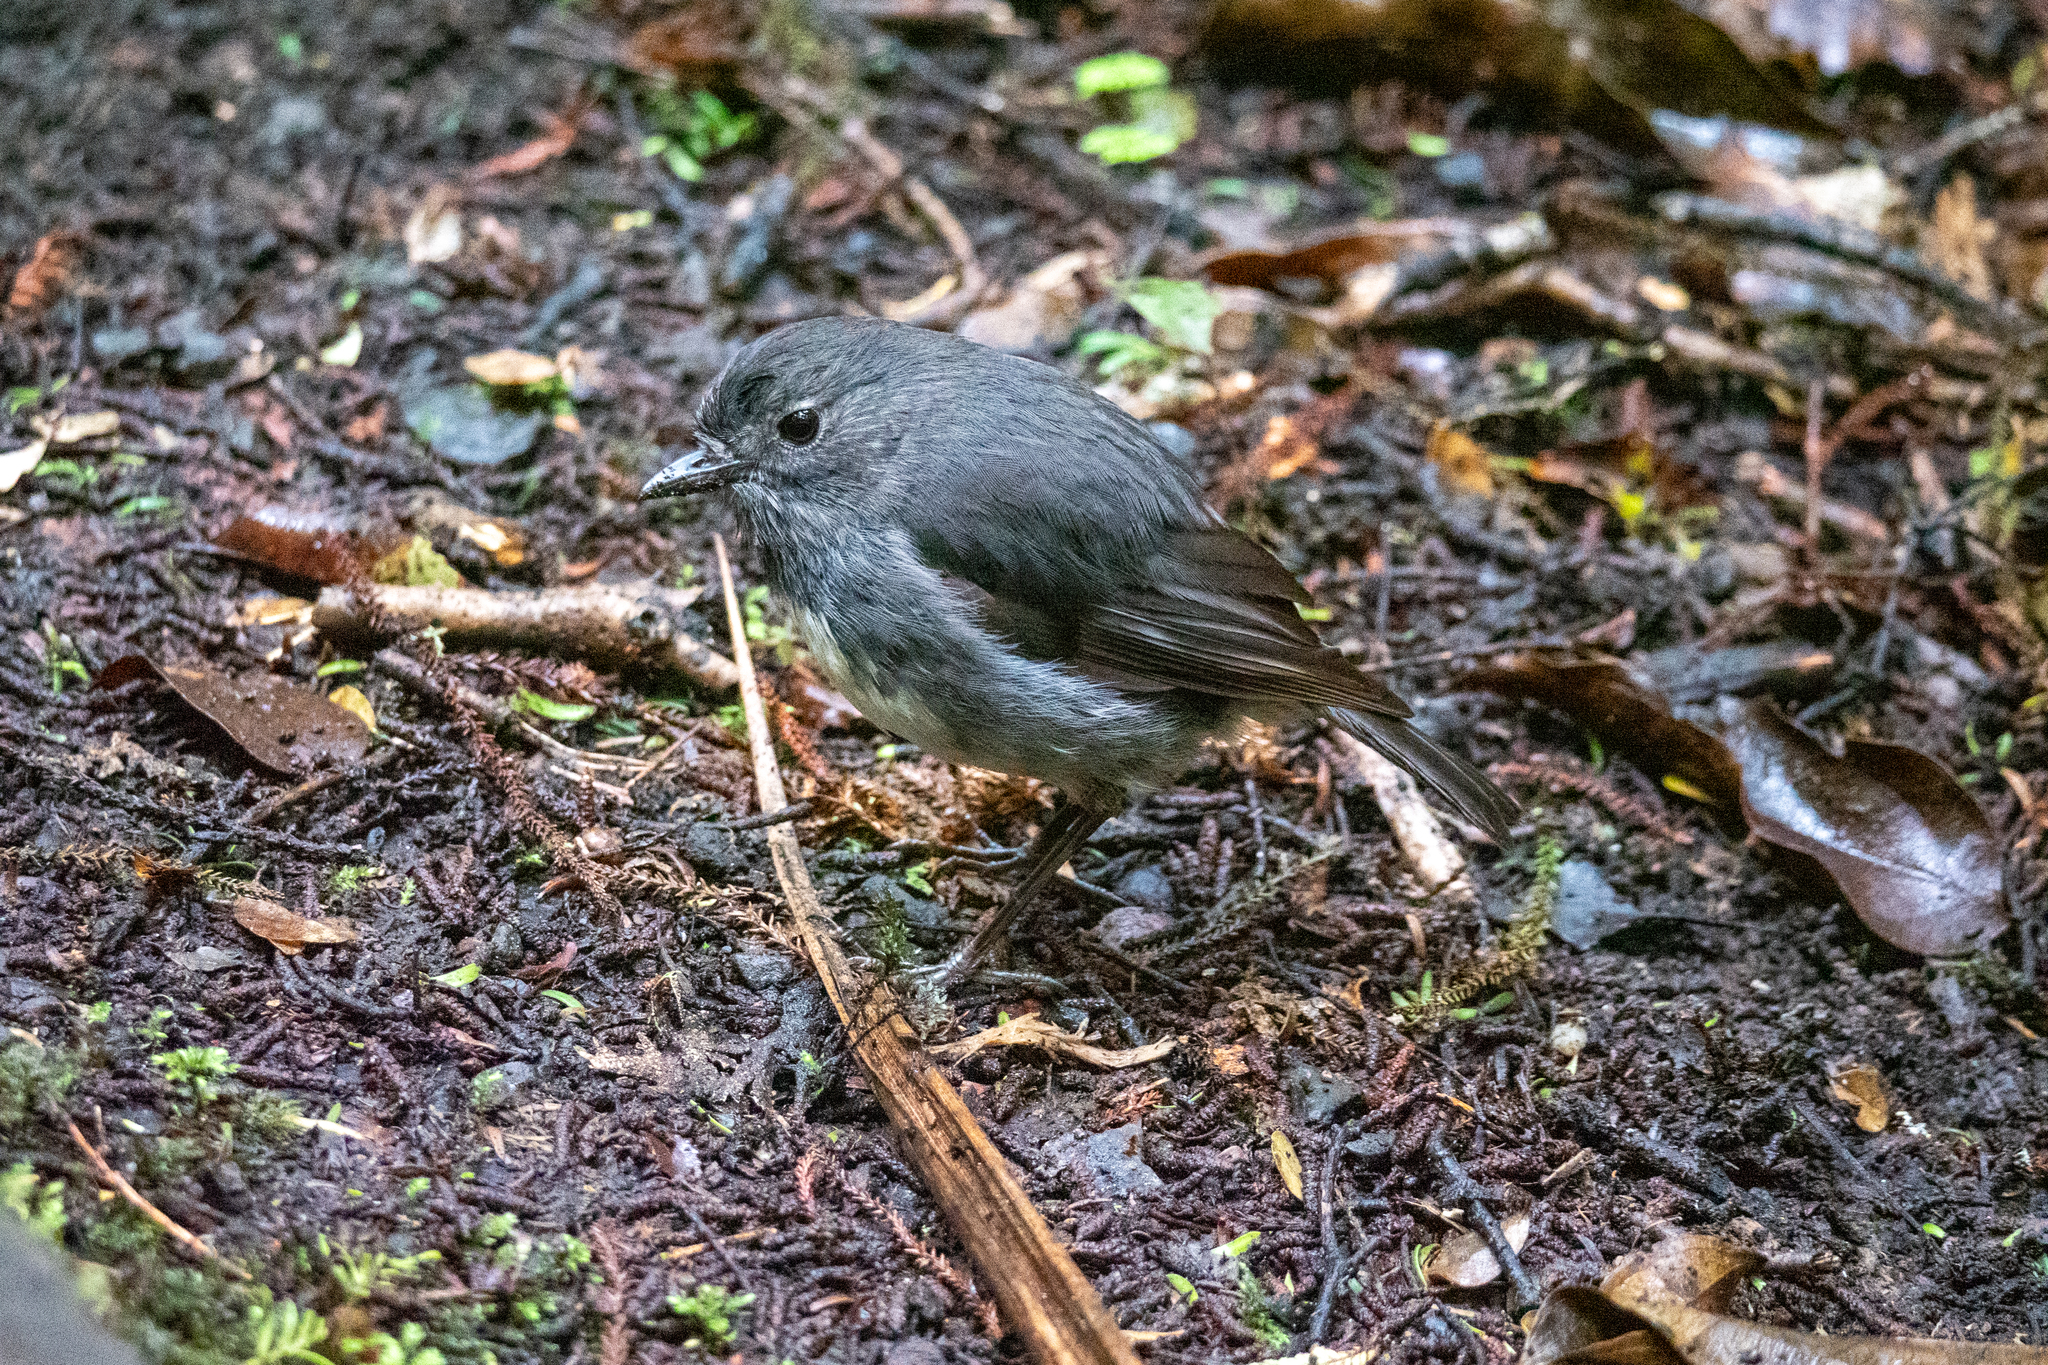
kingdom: Animalia
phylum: Chordata
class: Aves
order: Passeriformes
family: Petroicidae
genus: Petroica
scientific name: Petroica australis
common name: New zealand robin
